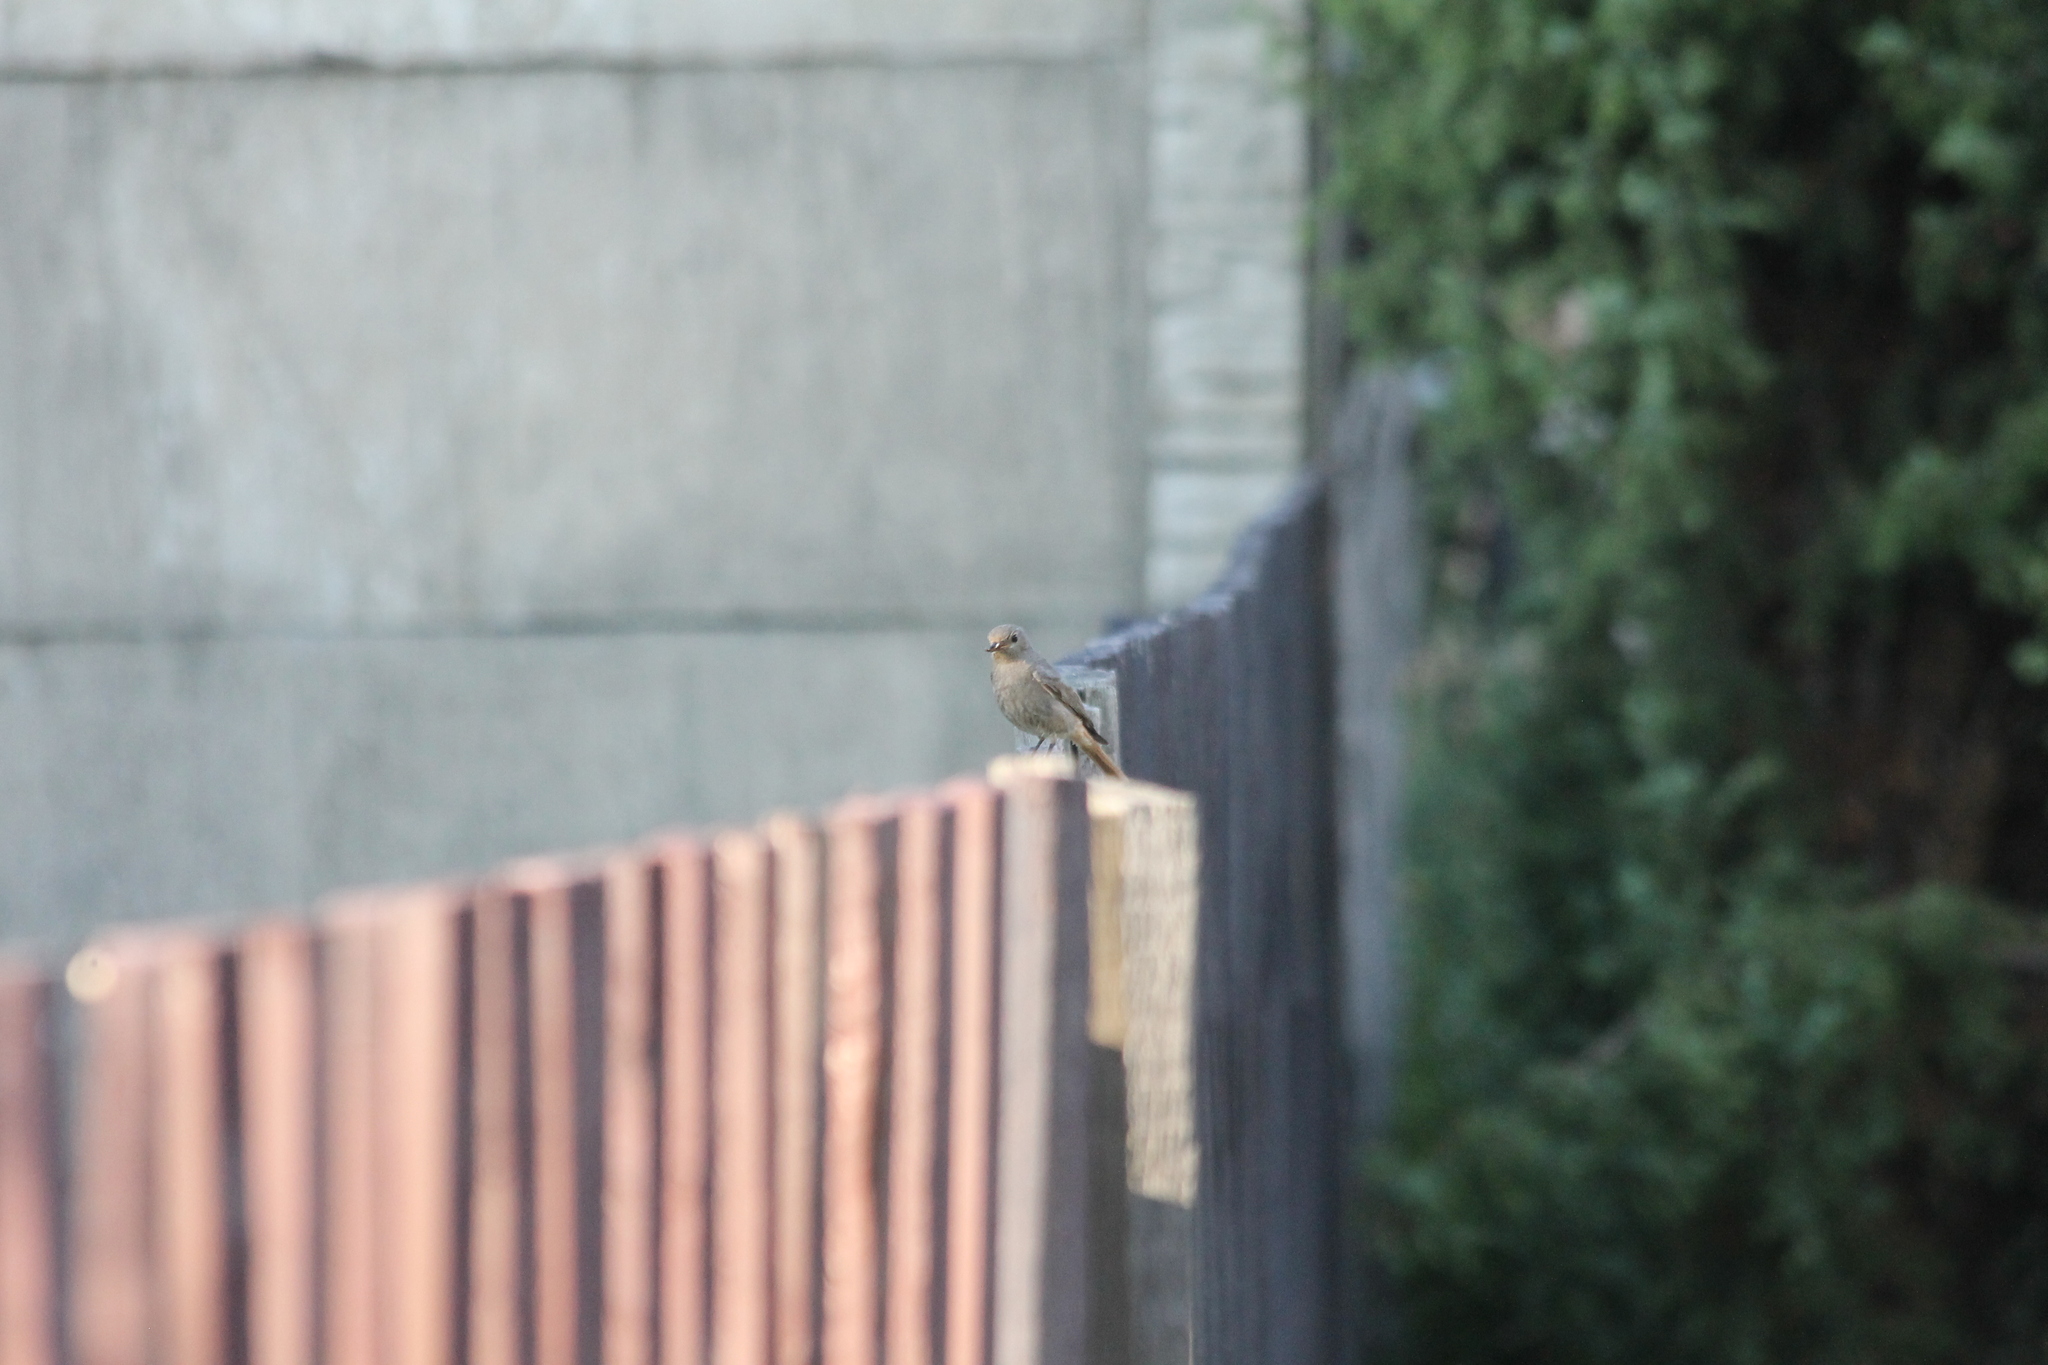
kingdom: Animalia
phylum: Chordata
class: Aves
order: Passeriformes
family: Muscicapidae
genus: Phoenicurus
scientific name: Phoenicurus ochruros
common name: Black redstart
